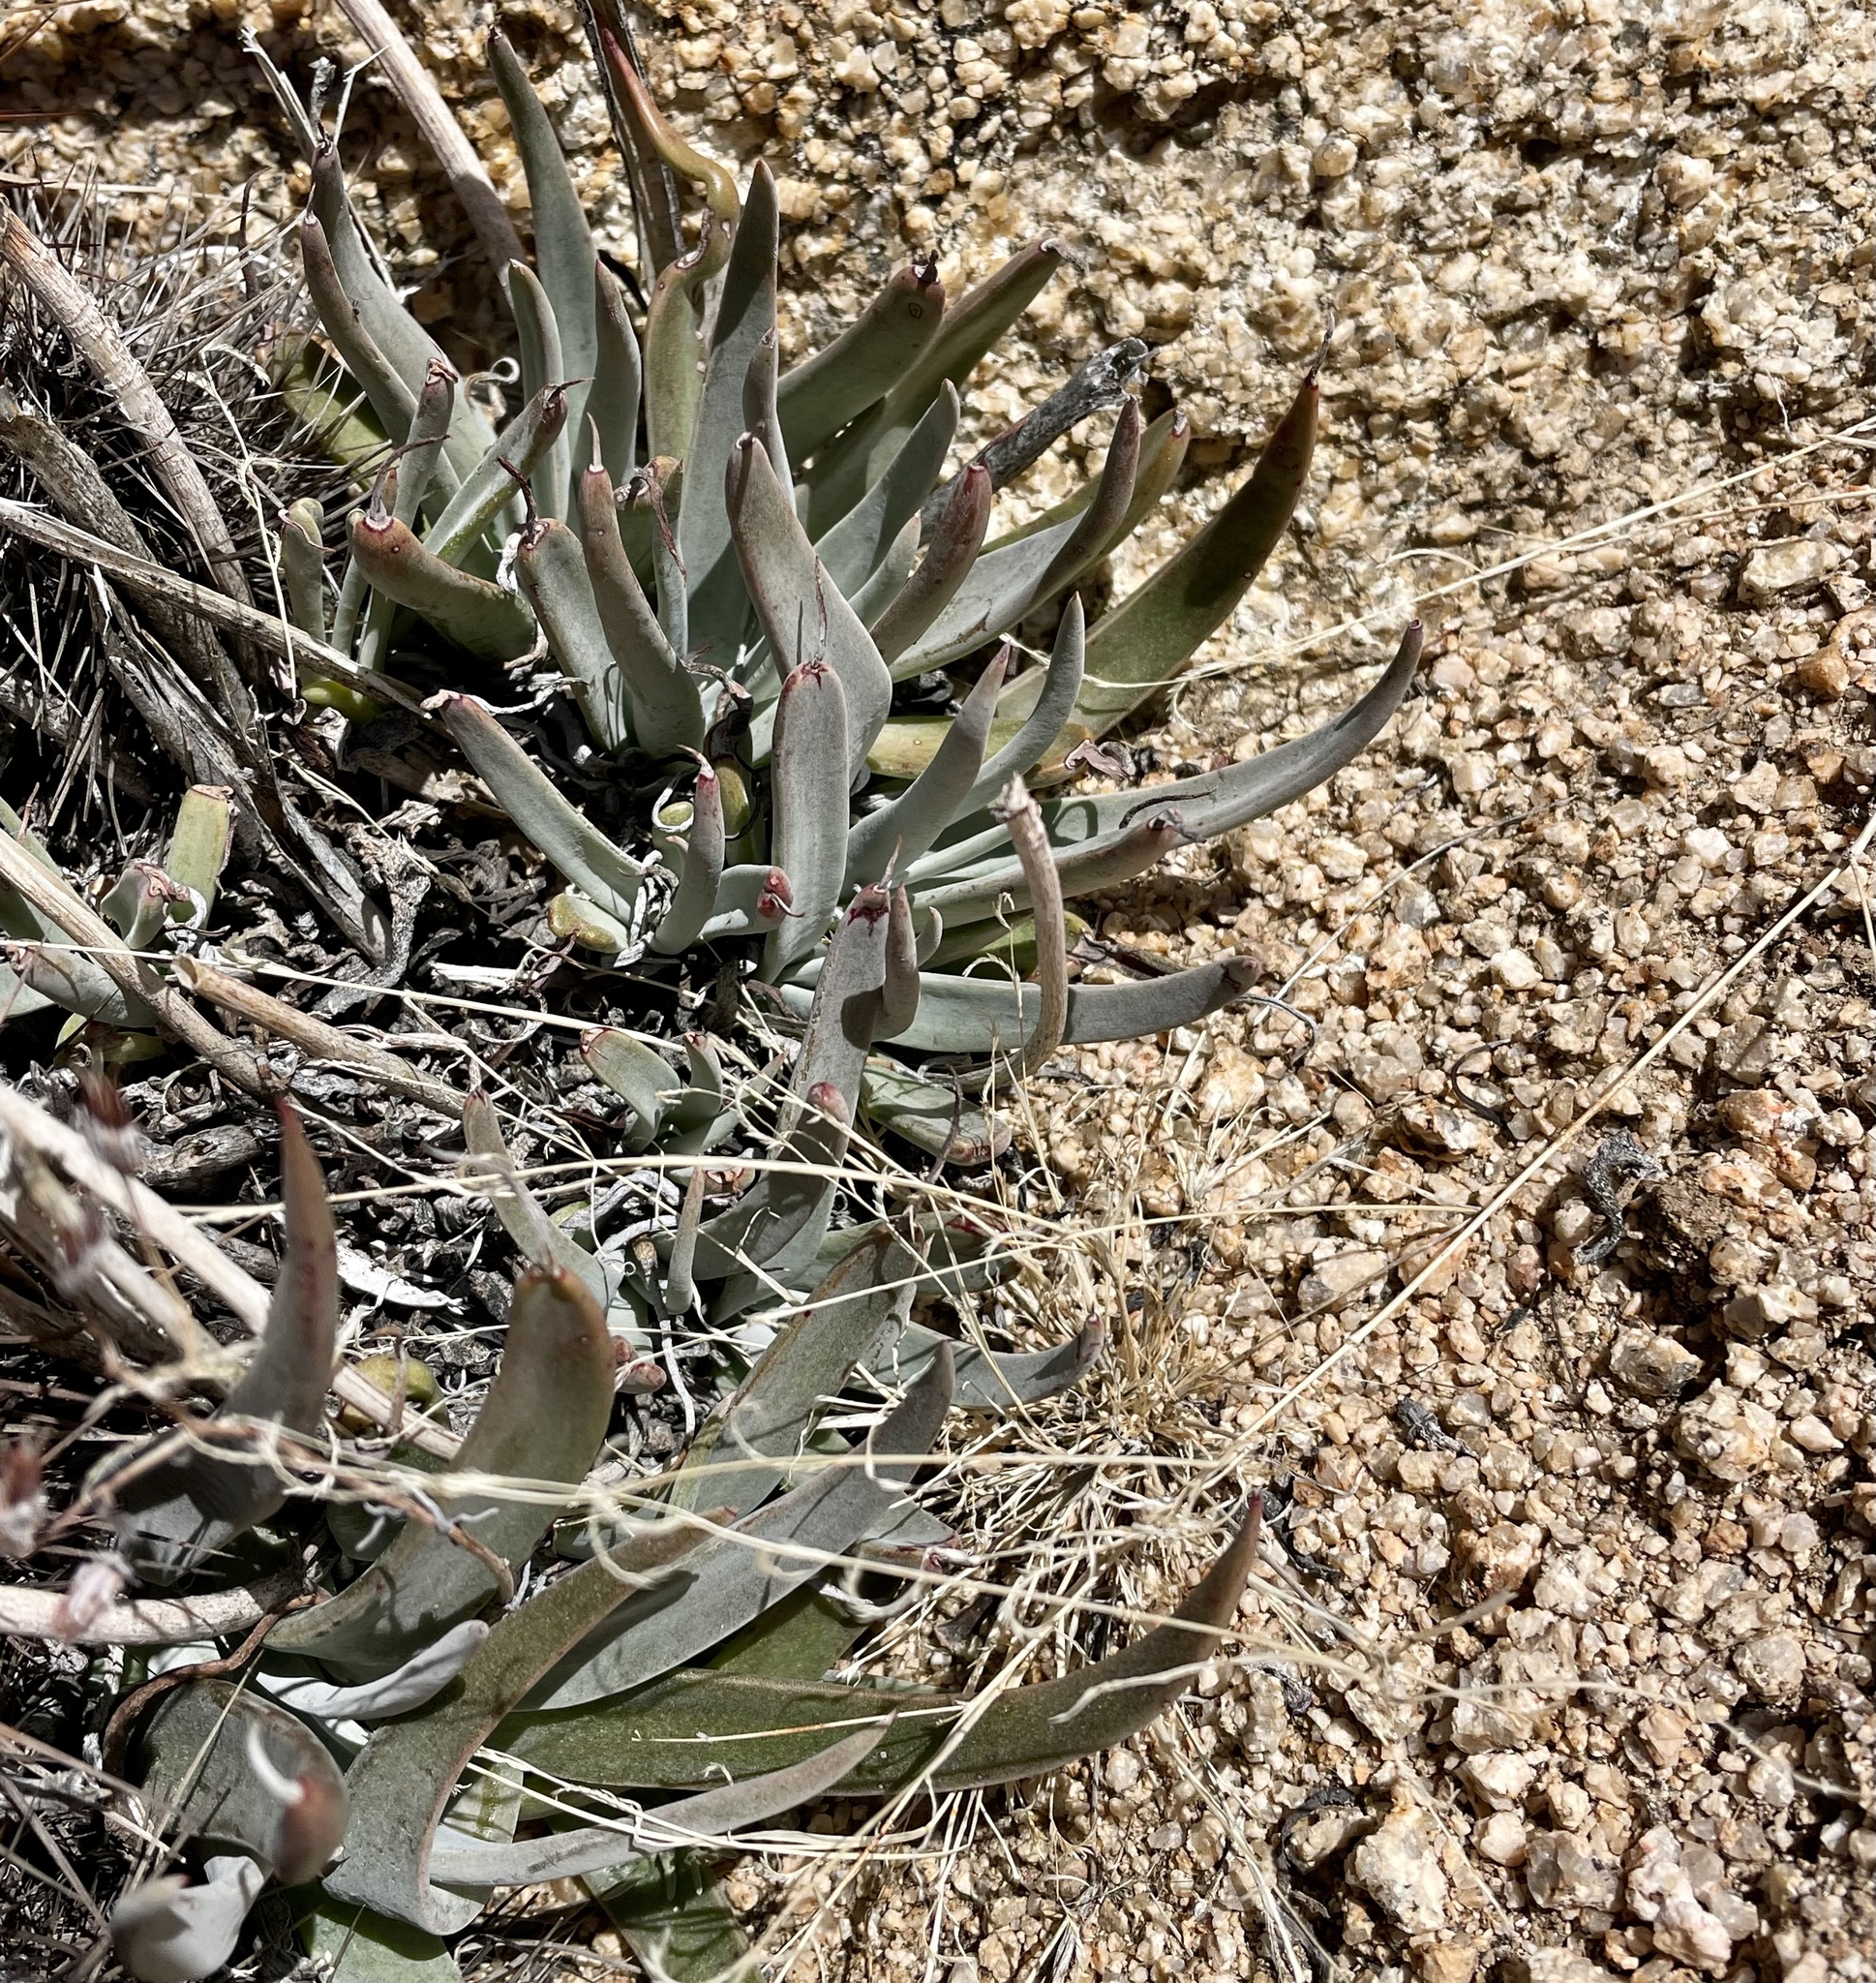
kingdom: Plantae
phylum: Tracheophyta
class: Magnoliopsida
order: Saxifragales
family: Crassulaceae
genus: Dudleya
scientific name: Dudleya saxosa
